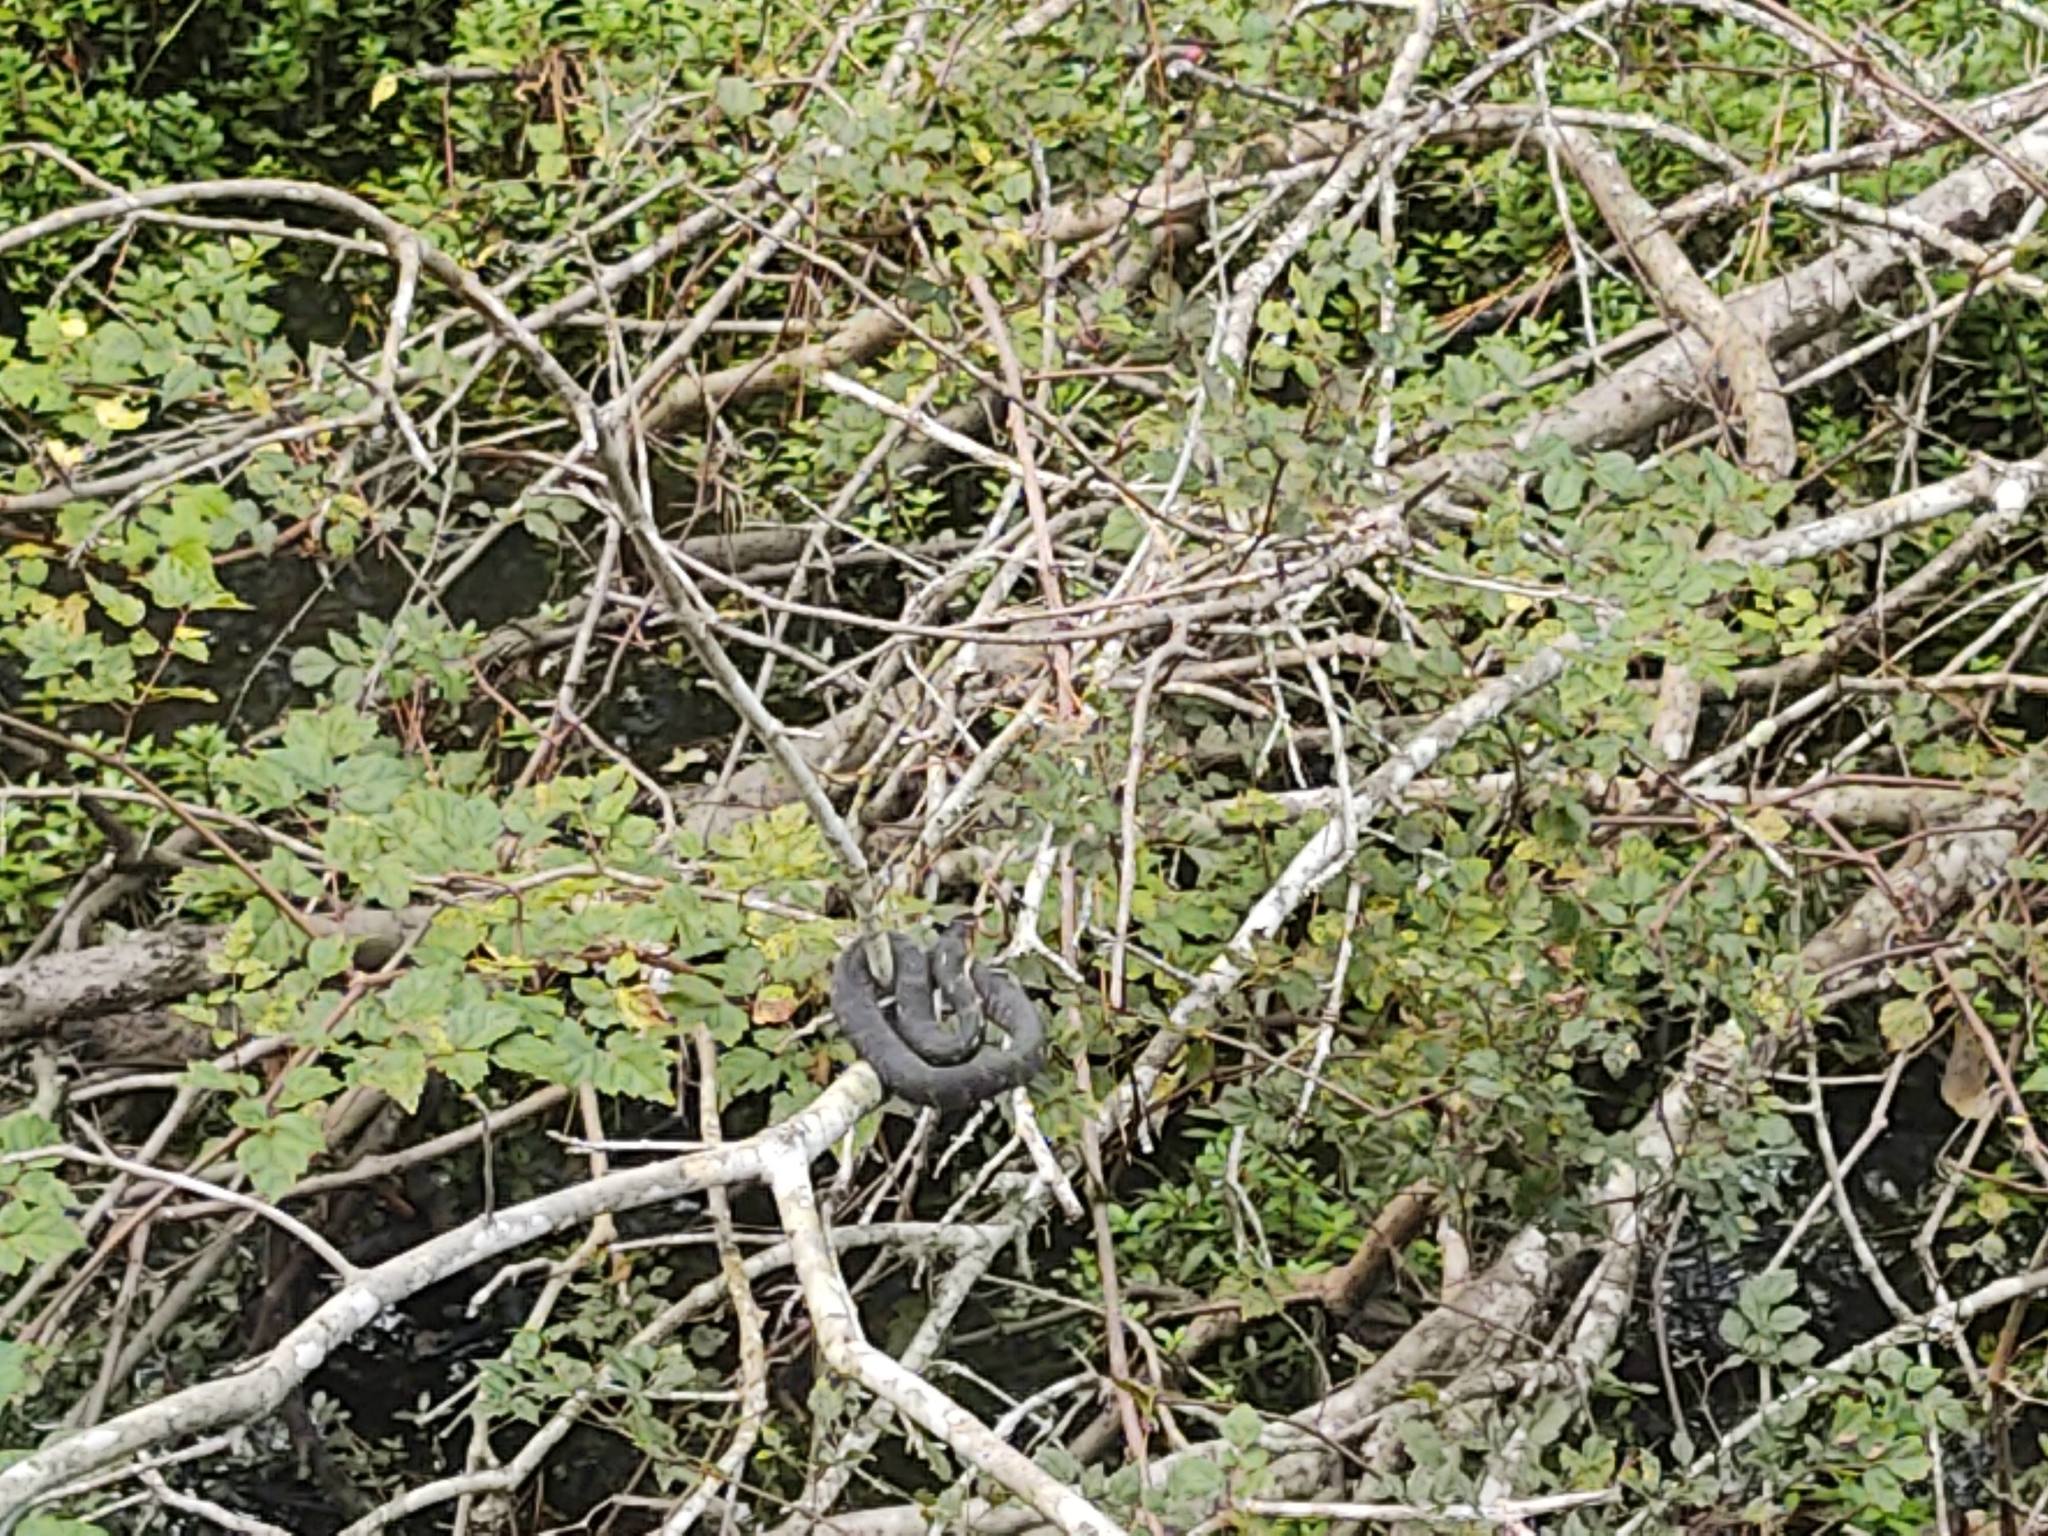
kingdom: Animalia
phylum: Chordata
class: Squamata
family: Colubridae
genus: Nerodia
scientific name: Nerodia fasciata
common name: Southern water snake
